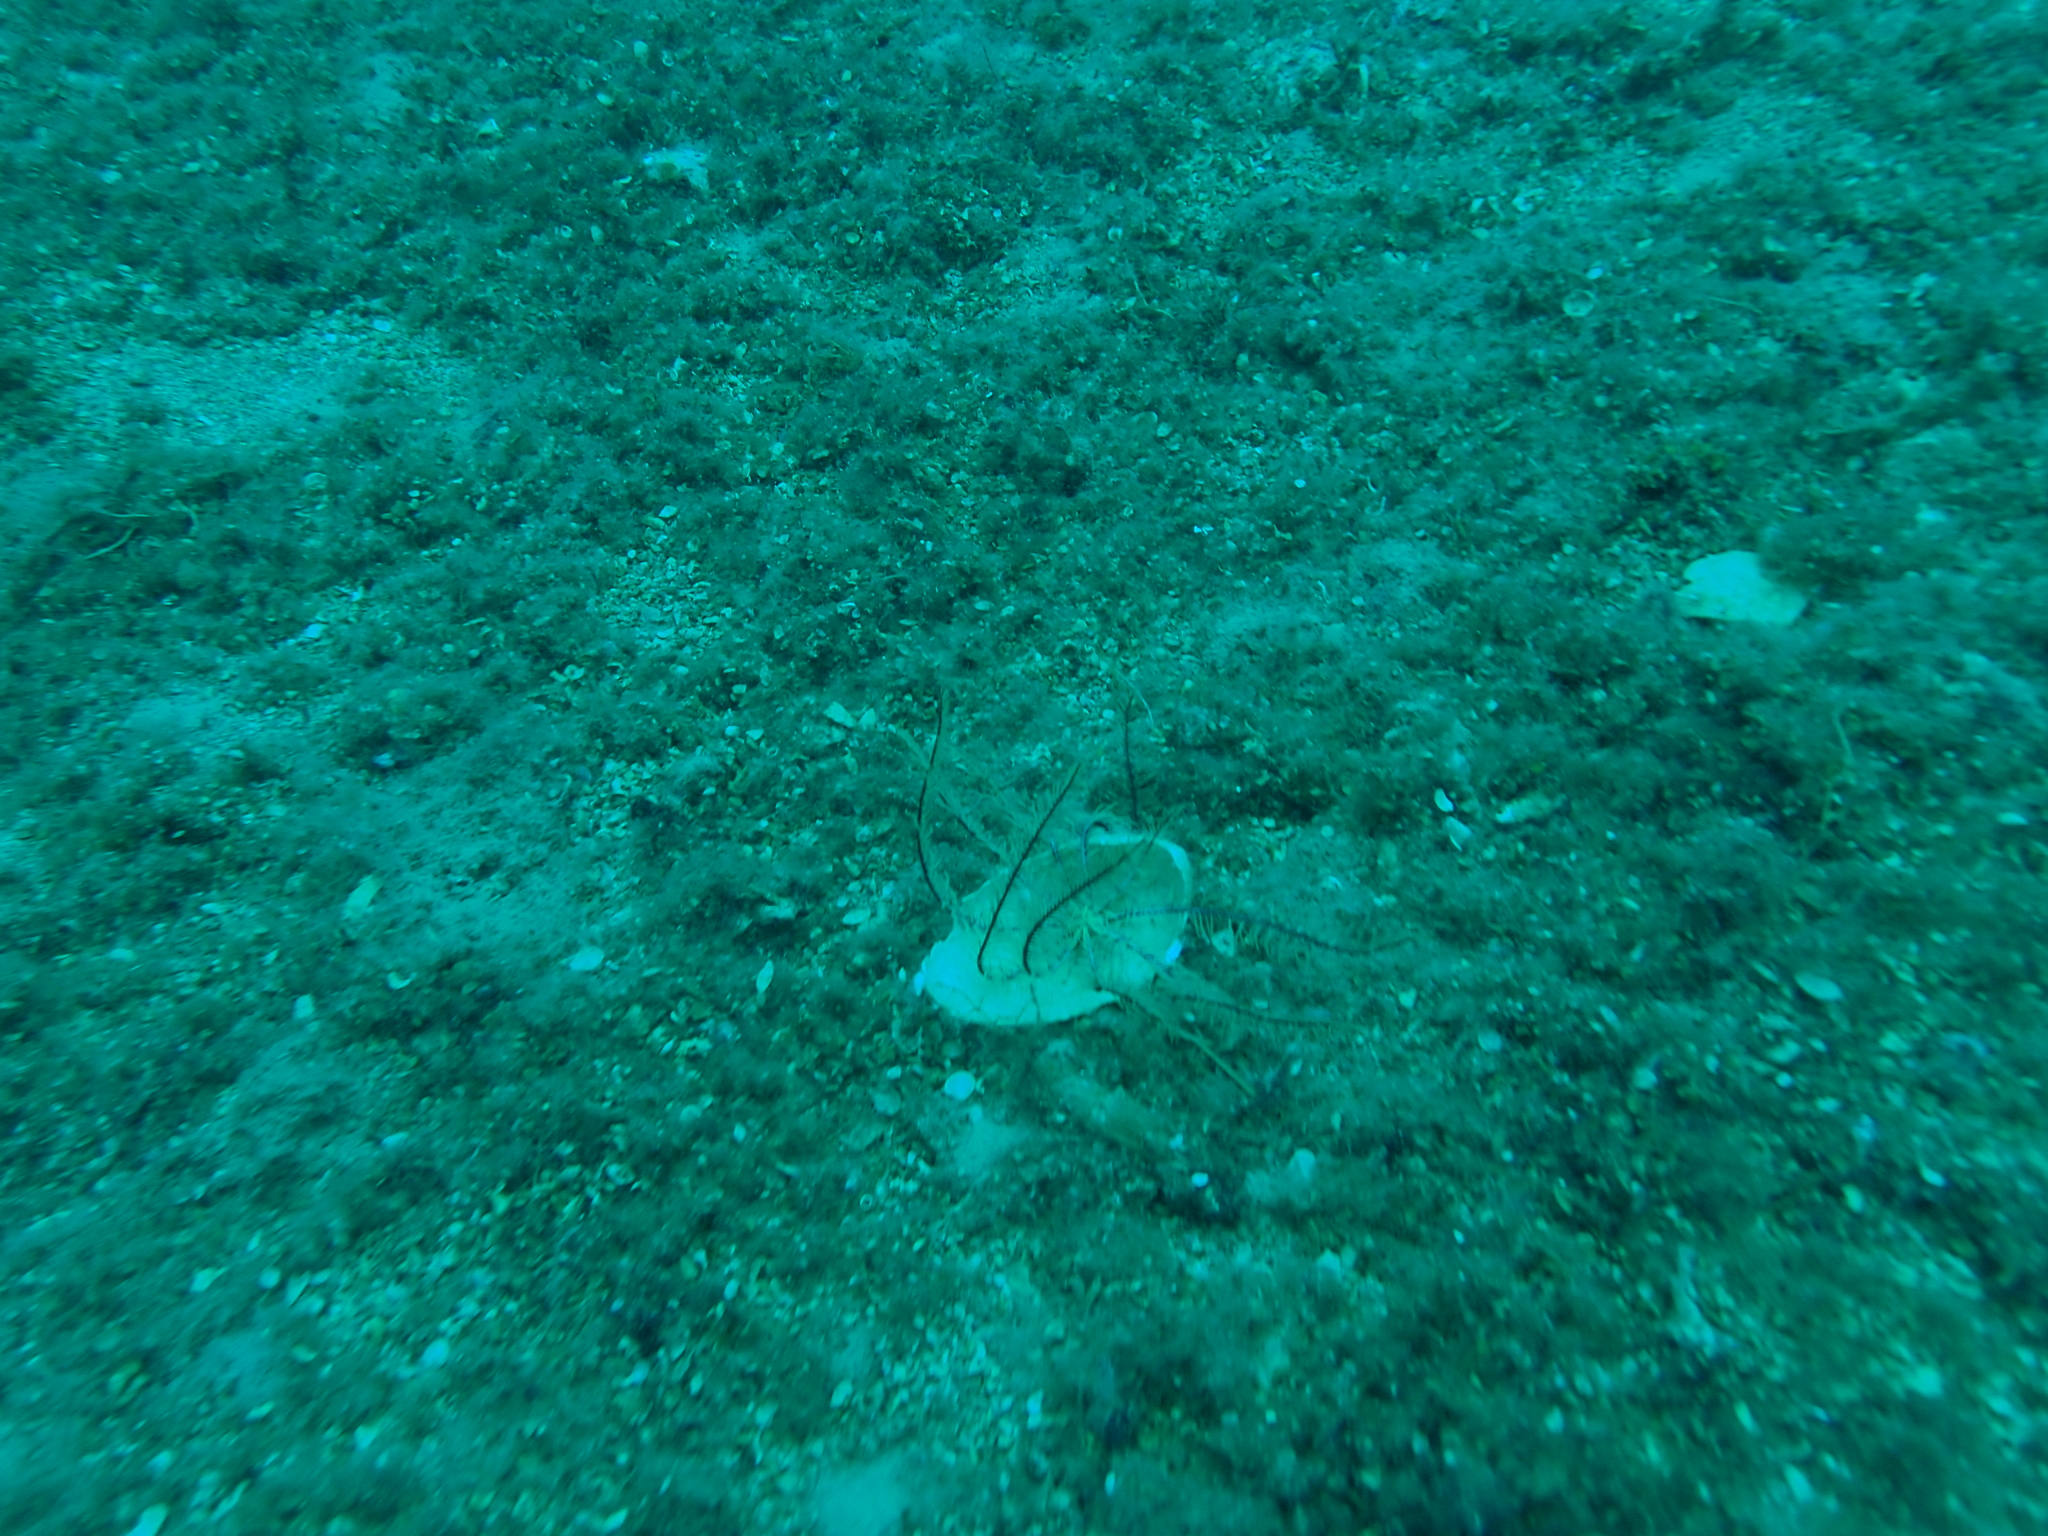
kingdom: Animalia
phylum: Echinodermata
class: Crinoidea
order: Comatulida
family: Antedonidae
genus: Antedon
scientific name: Antedon mediterranea
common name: Feather star
